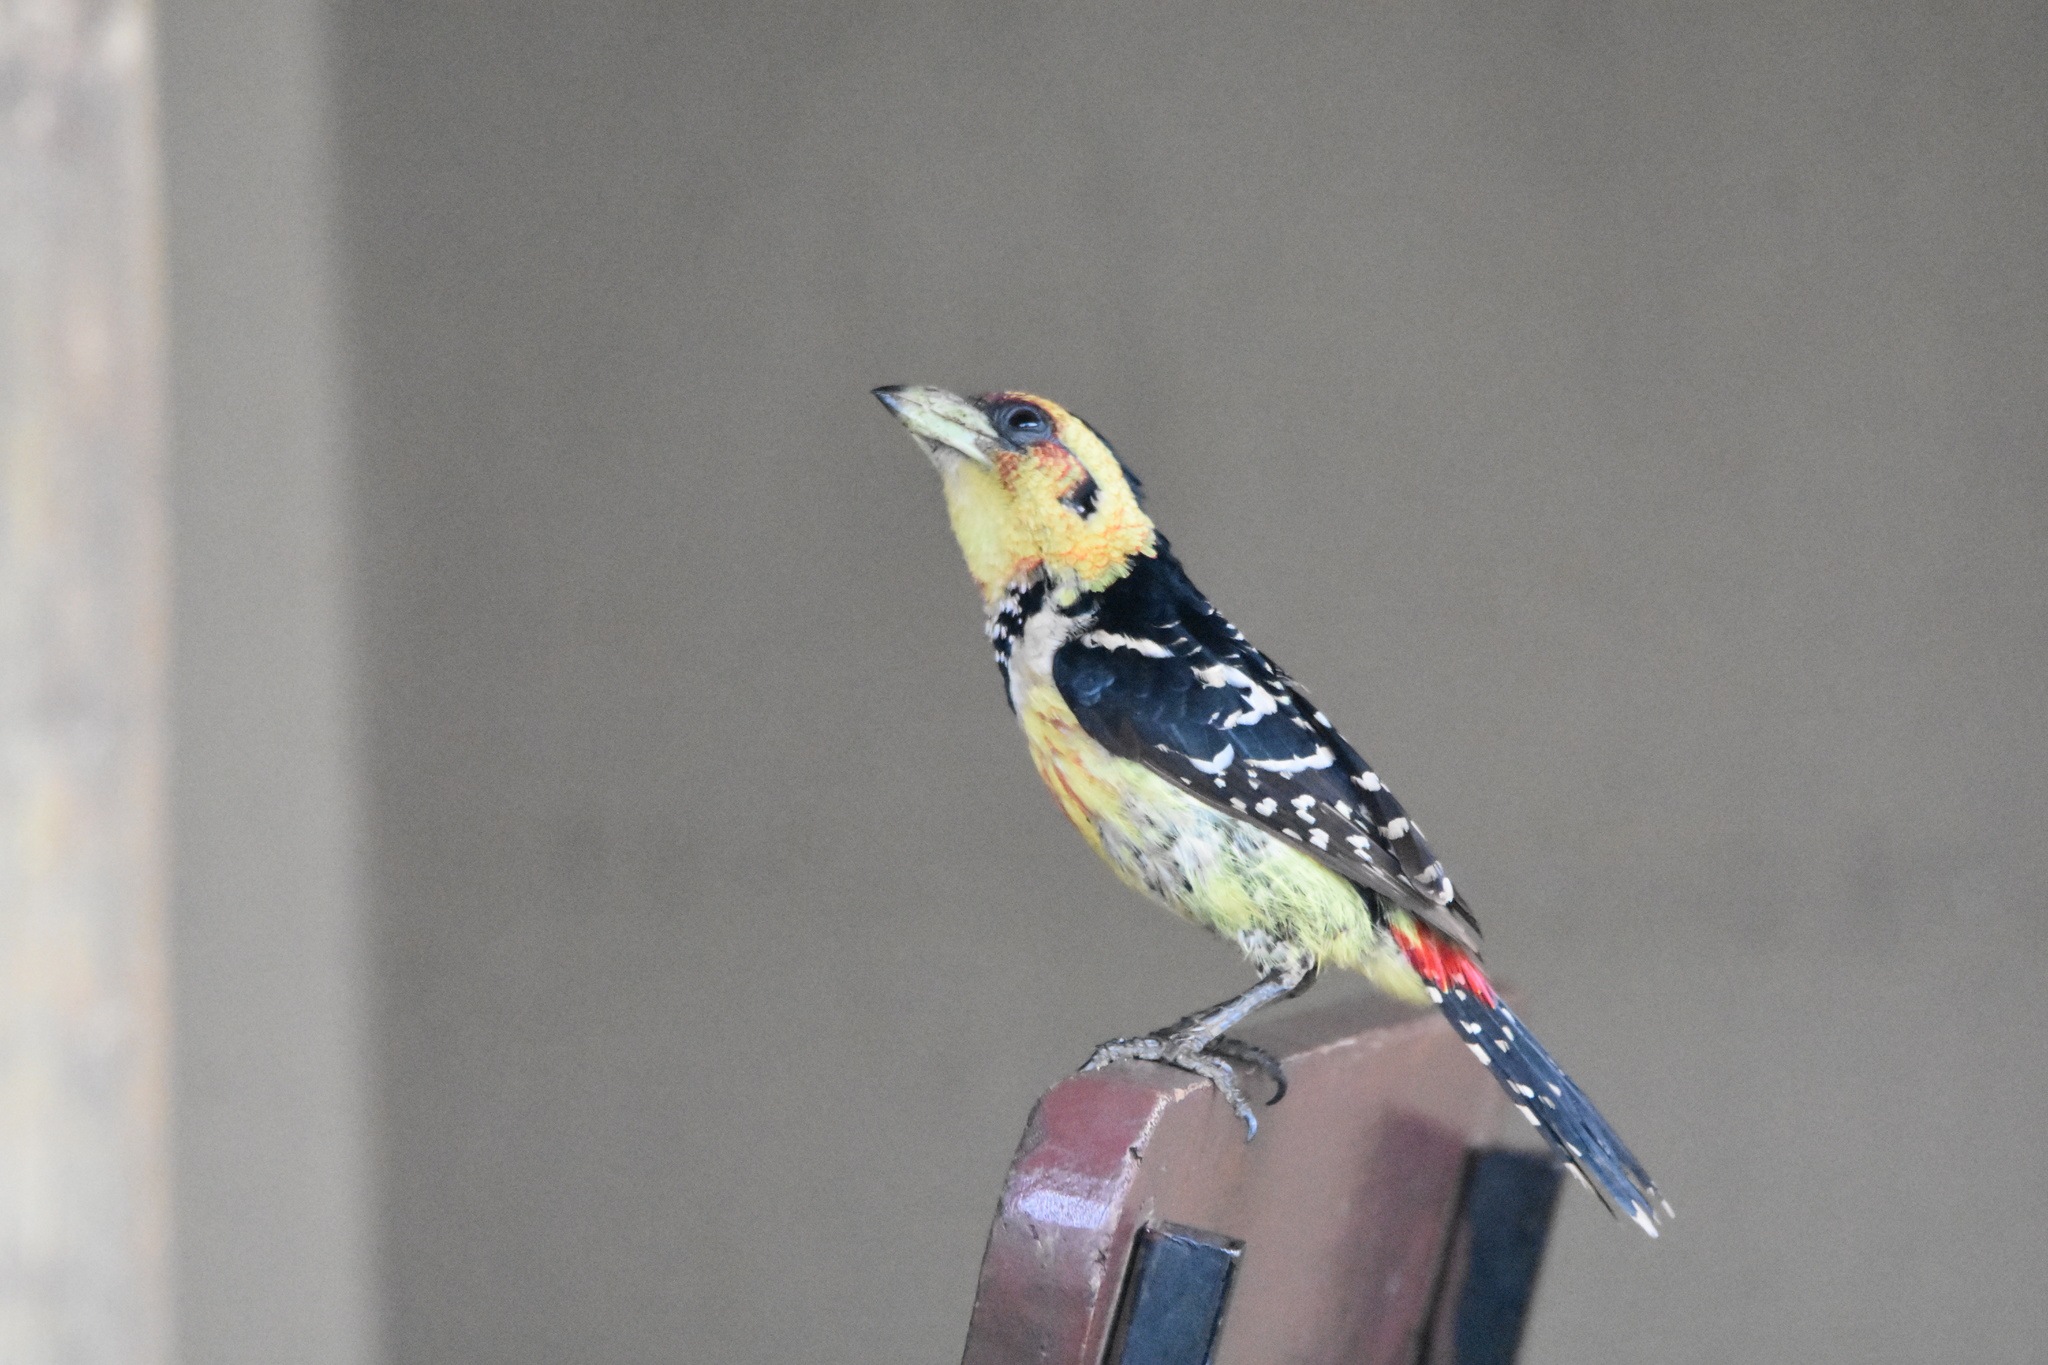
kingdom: Animalia
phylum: Chordata
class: Aves
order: Piciformes
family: Lybiidae
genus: Trachyphonus
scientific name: Trachyphonus vaillantii
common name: Crested barbet
